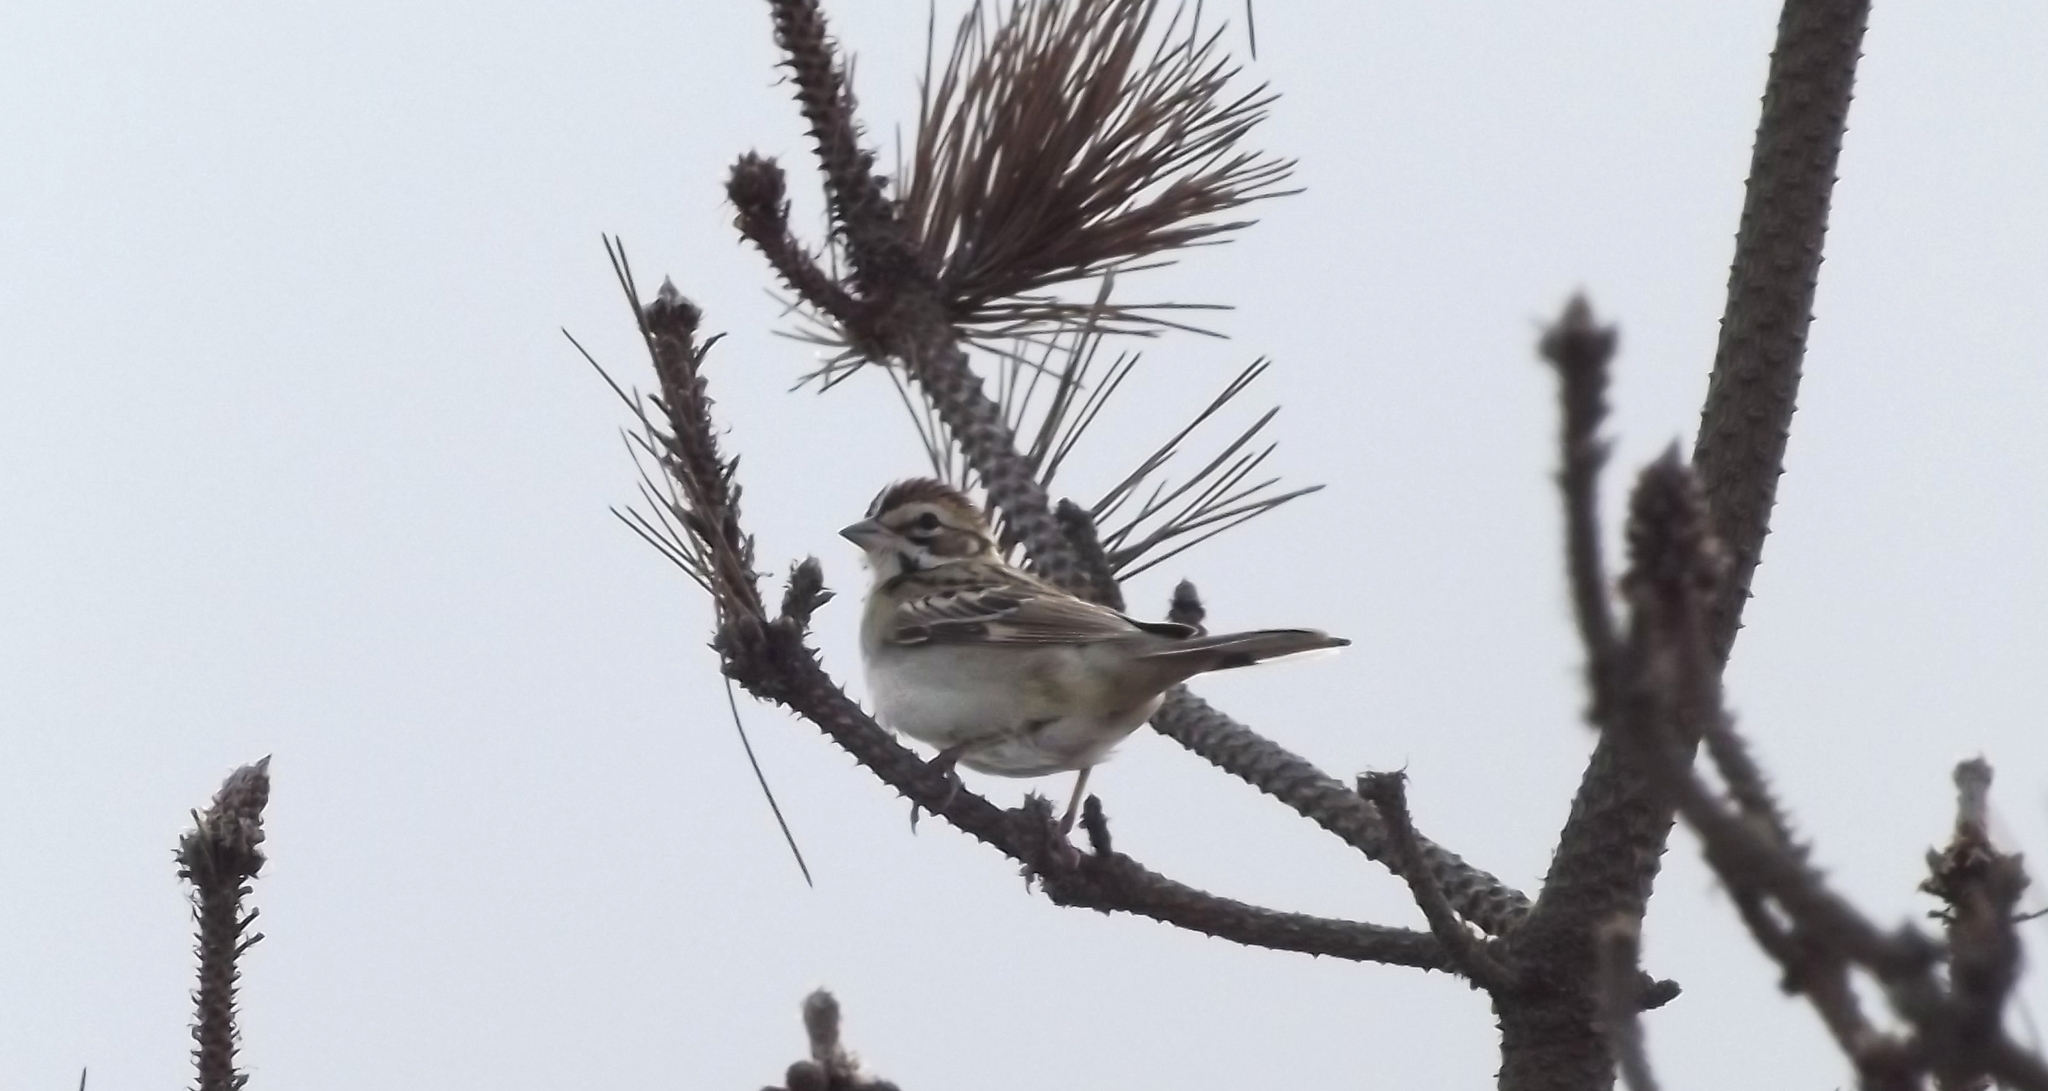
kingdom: Animalia
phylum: Chordata
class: Aves
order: Passeriformes
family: Passerellidae
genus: Chondestes
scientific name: Chondestes grammacus
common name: Lark sparrow
